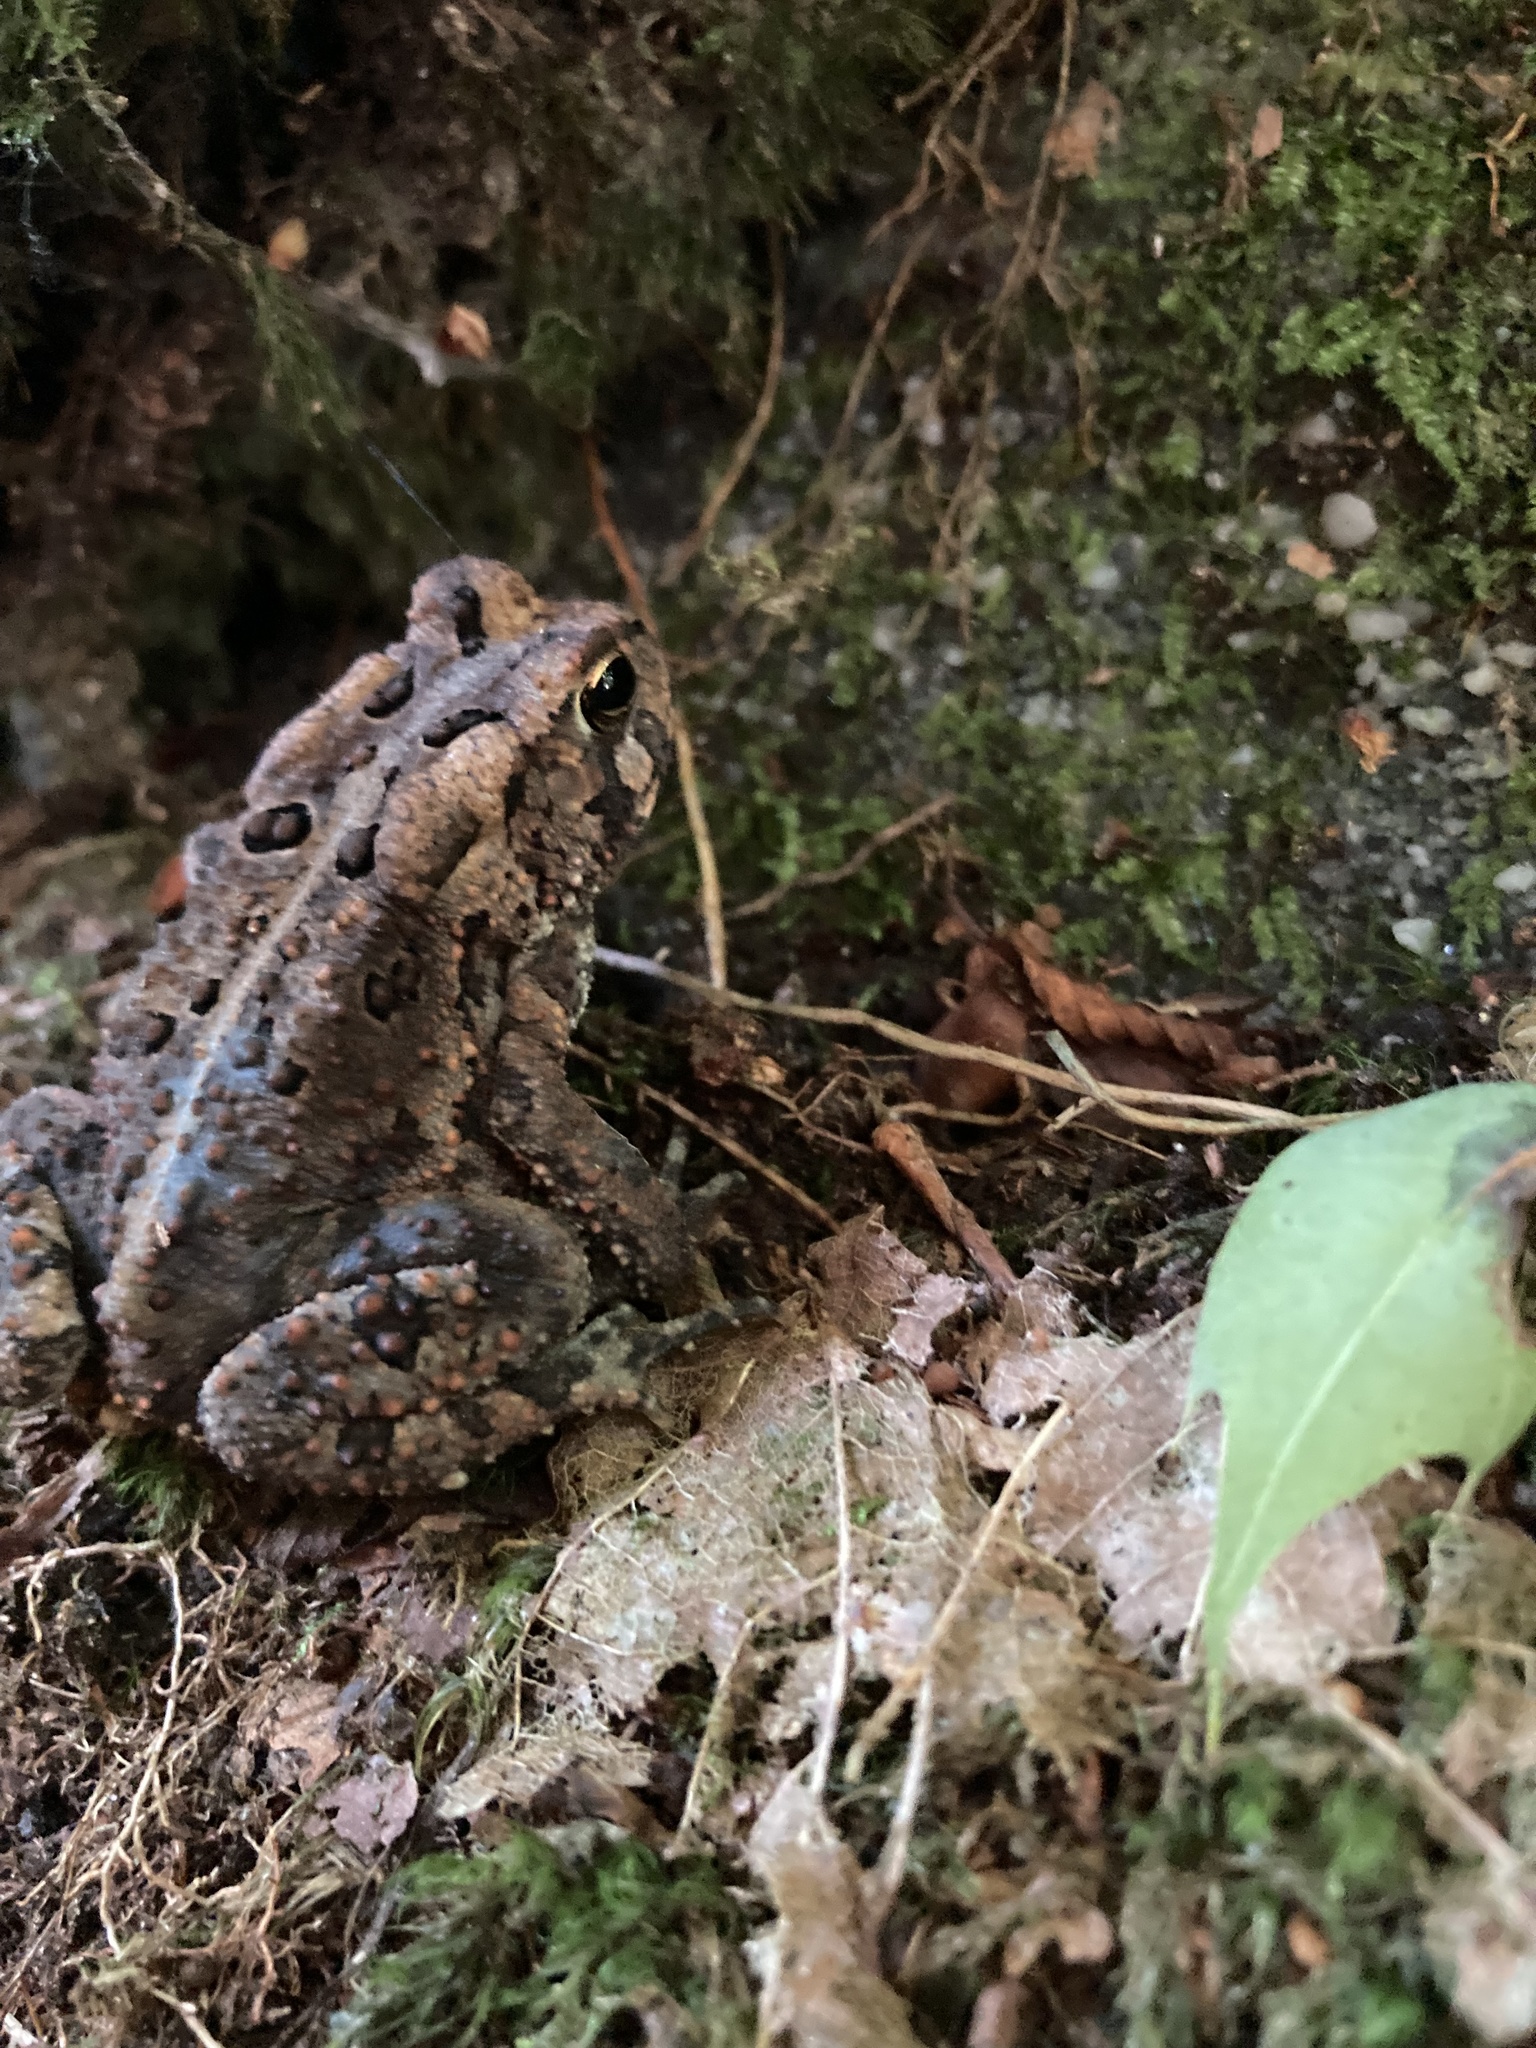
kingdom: Animalia
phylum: Chordata
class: Amphibia
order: Anura
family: Bufonidae
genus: Anaxyrus
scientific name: Anaxyrus americanus
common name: American toad
